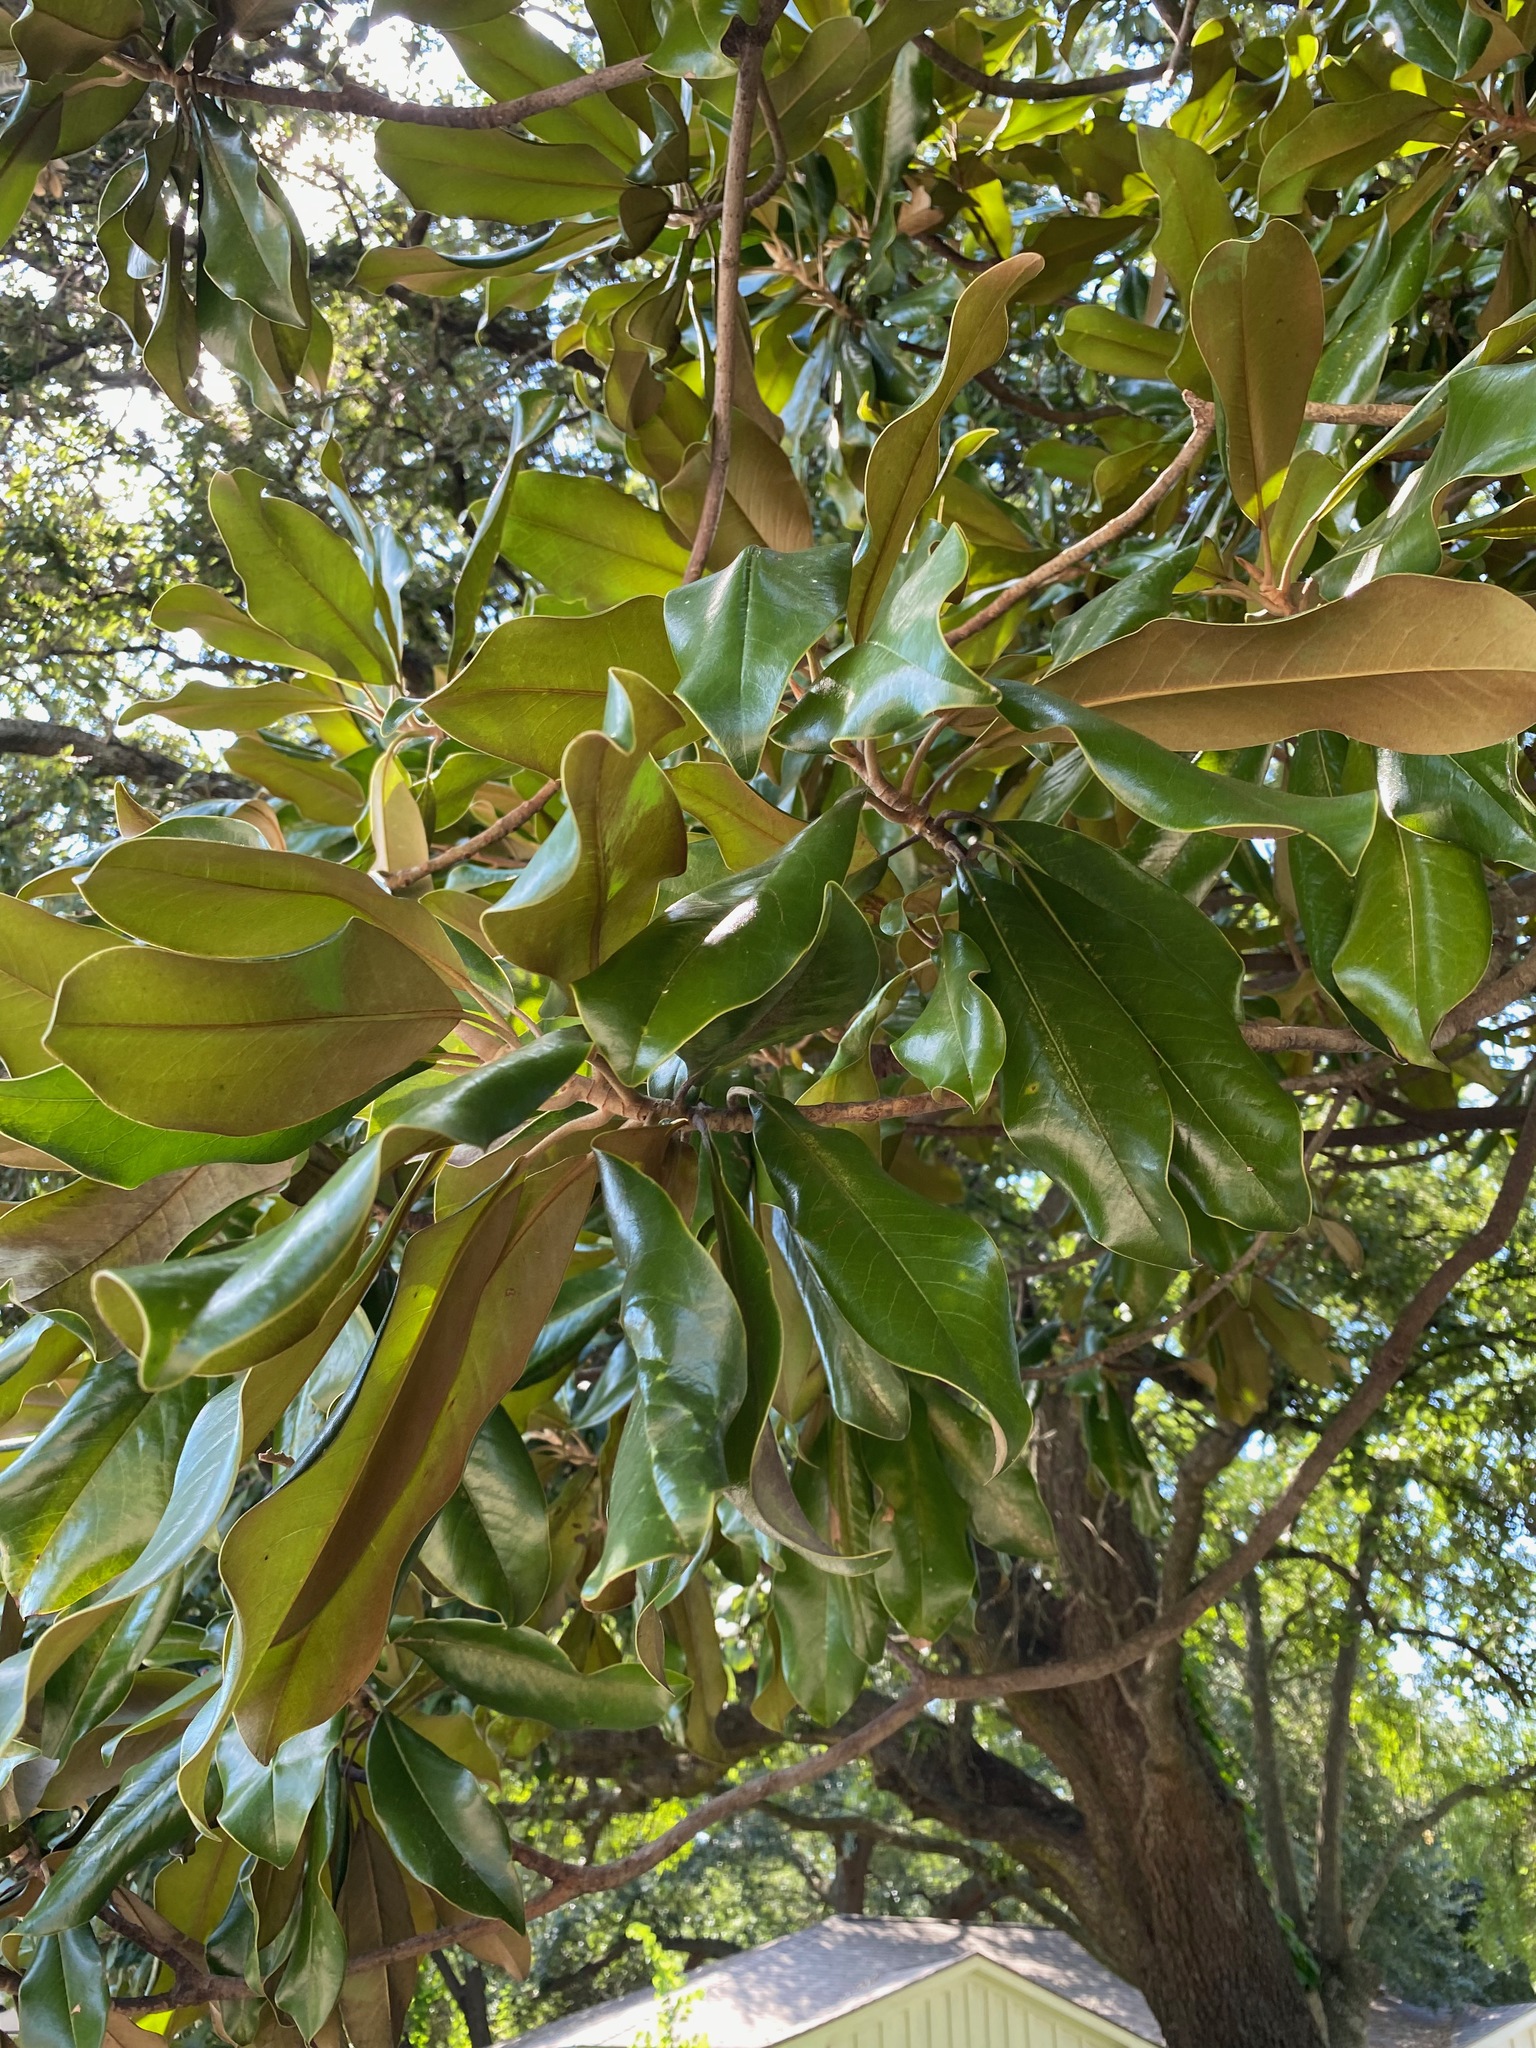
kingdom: Plantae
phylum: Tracheophyta
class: Magnoliopsida
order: Magnoliales
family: Magnoliaceae
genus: Magnolia
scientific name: Magnolia grandiflora
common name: Southern magnolia
